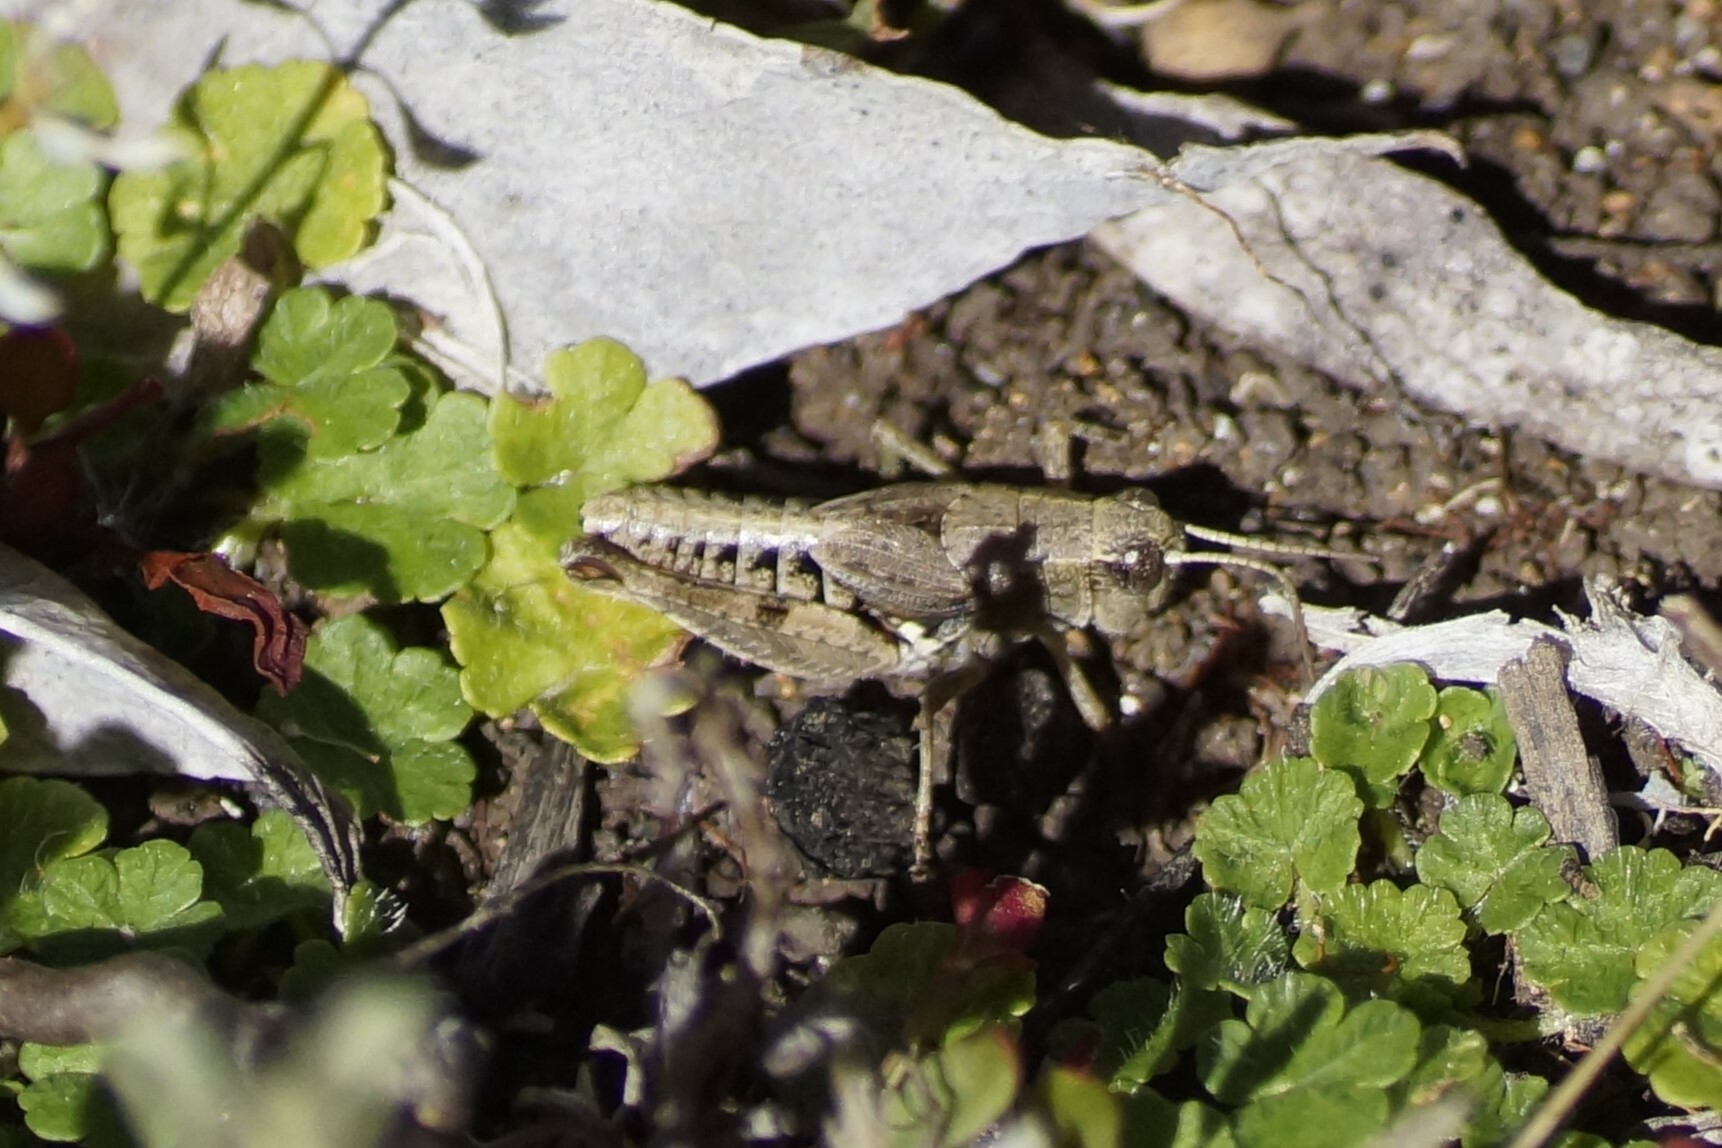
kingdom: Animalia
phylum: Arthropoda
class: Insecta
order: Orthoptera
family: Acrididae
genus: Phaulacridium
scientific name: Phaulacridium vittatum
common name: Wingless grasshopper
